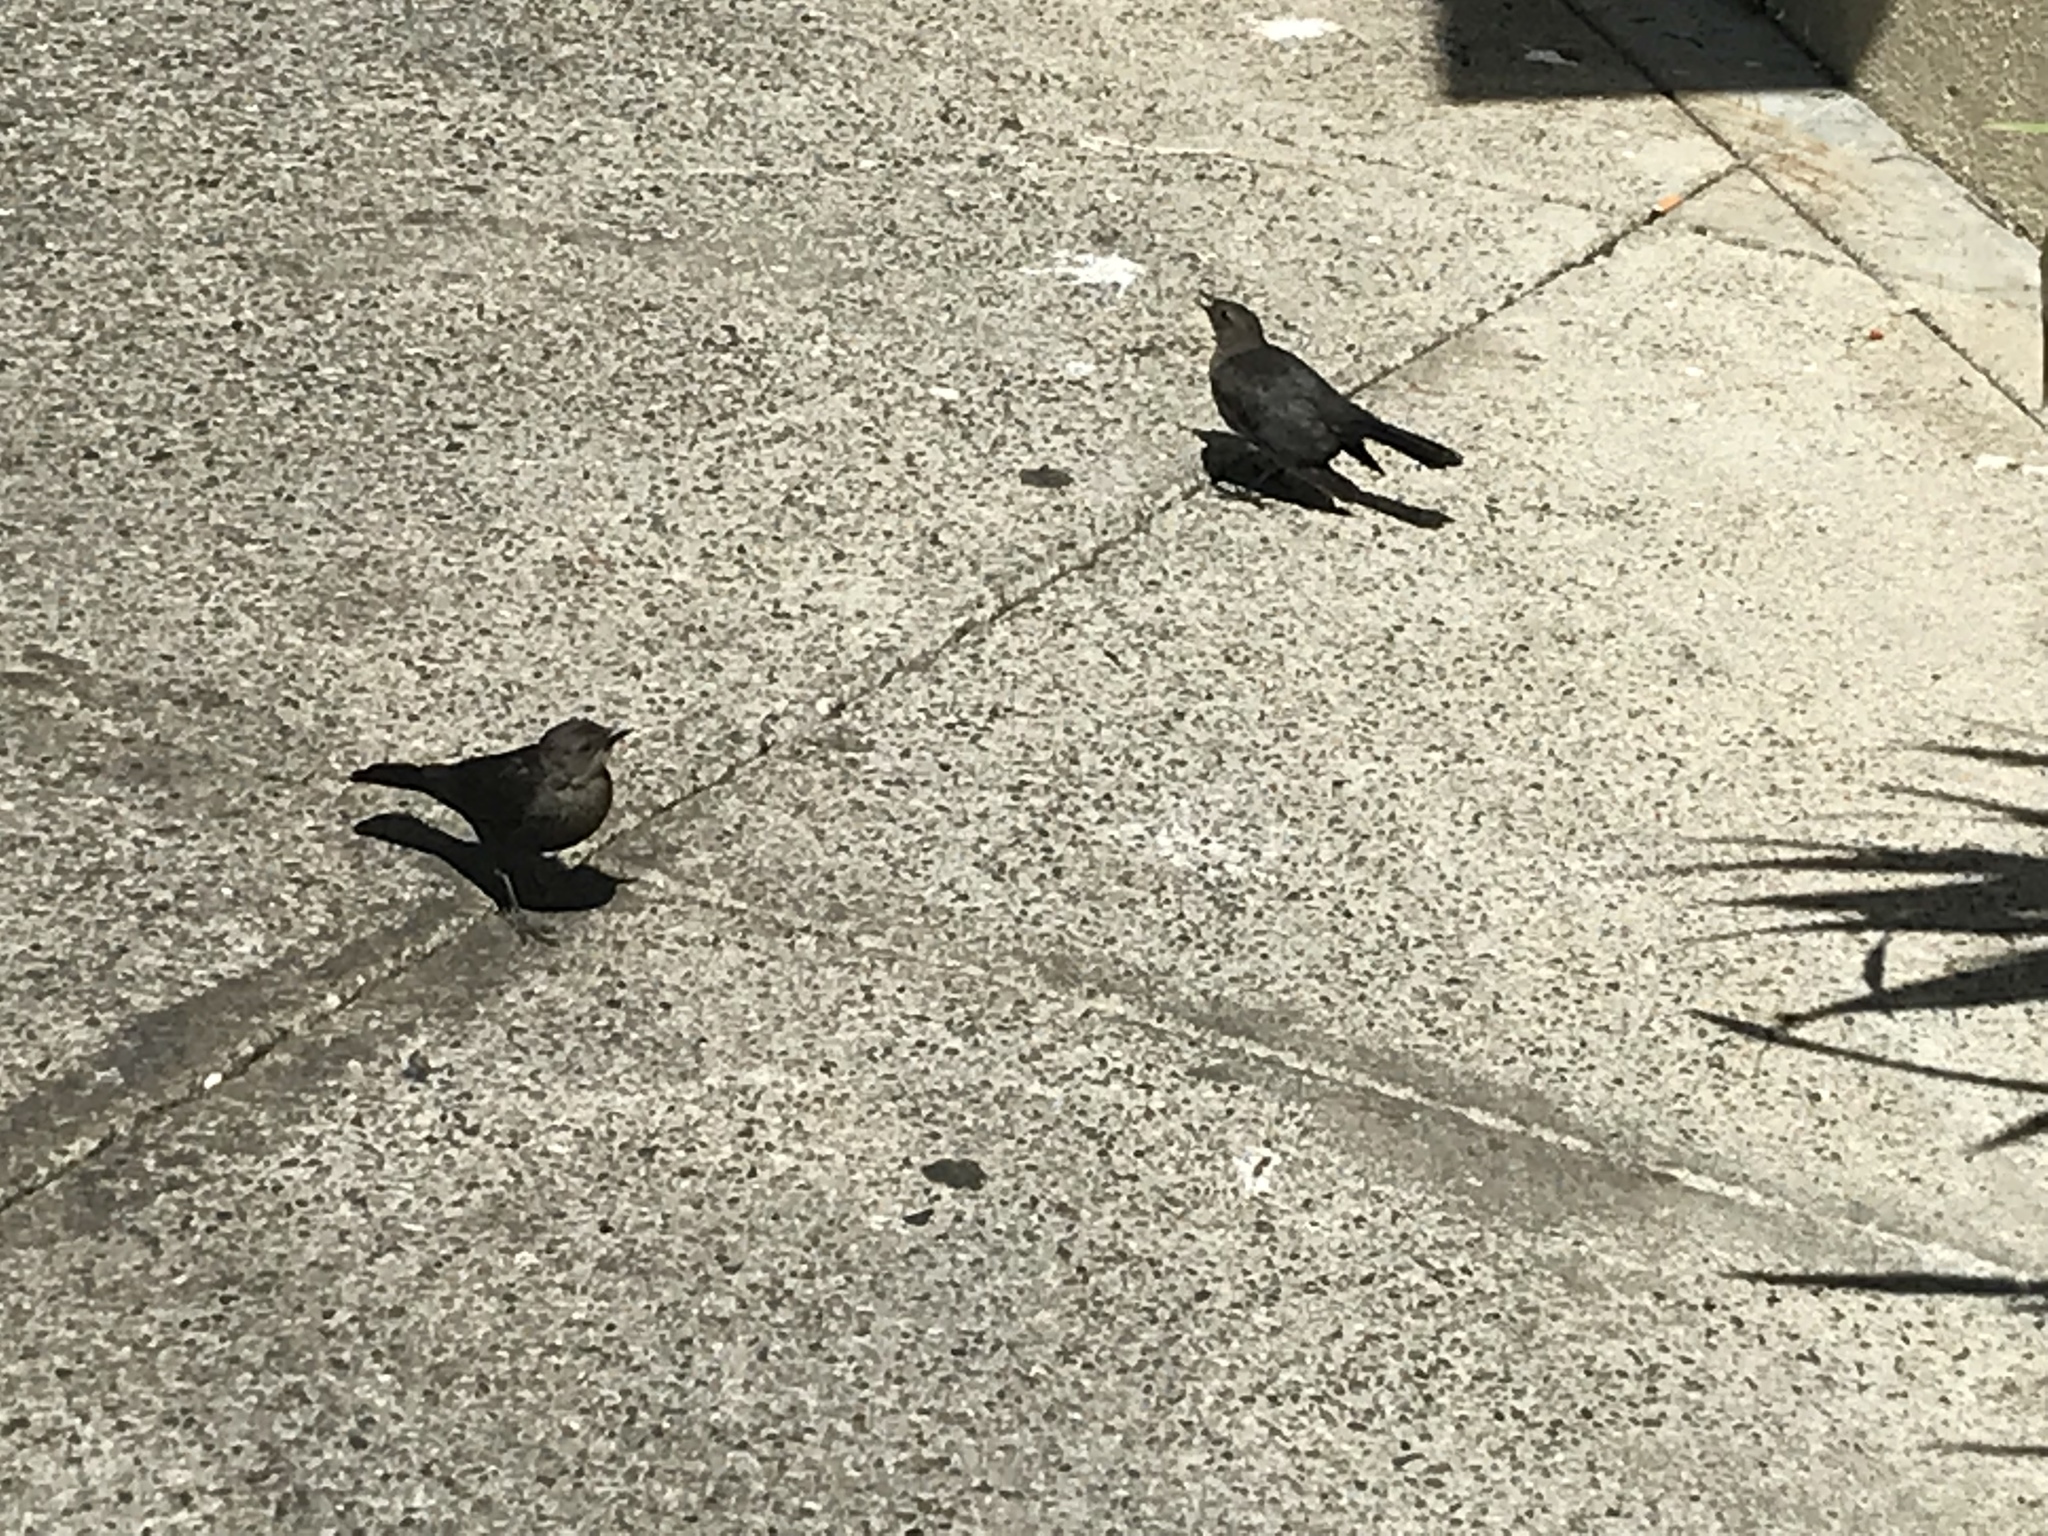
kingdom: Animalia
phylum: Chordata
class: Aves
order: Passeriformes
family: Icteridae
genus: Euphagus
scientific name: Euphagus cyanocephalus
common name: Brewer's blackbird
